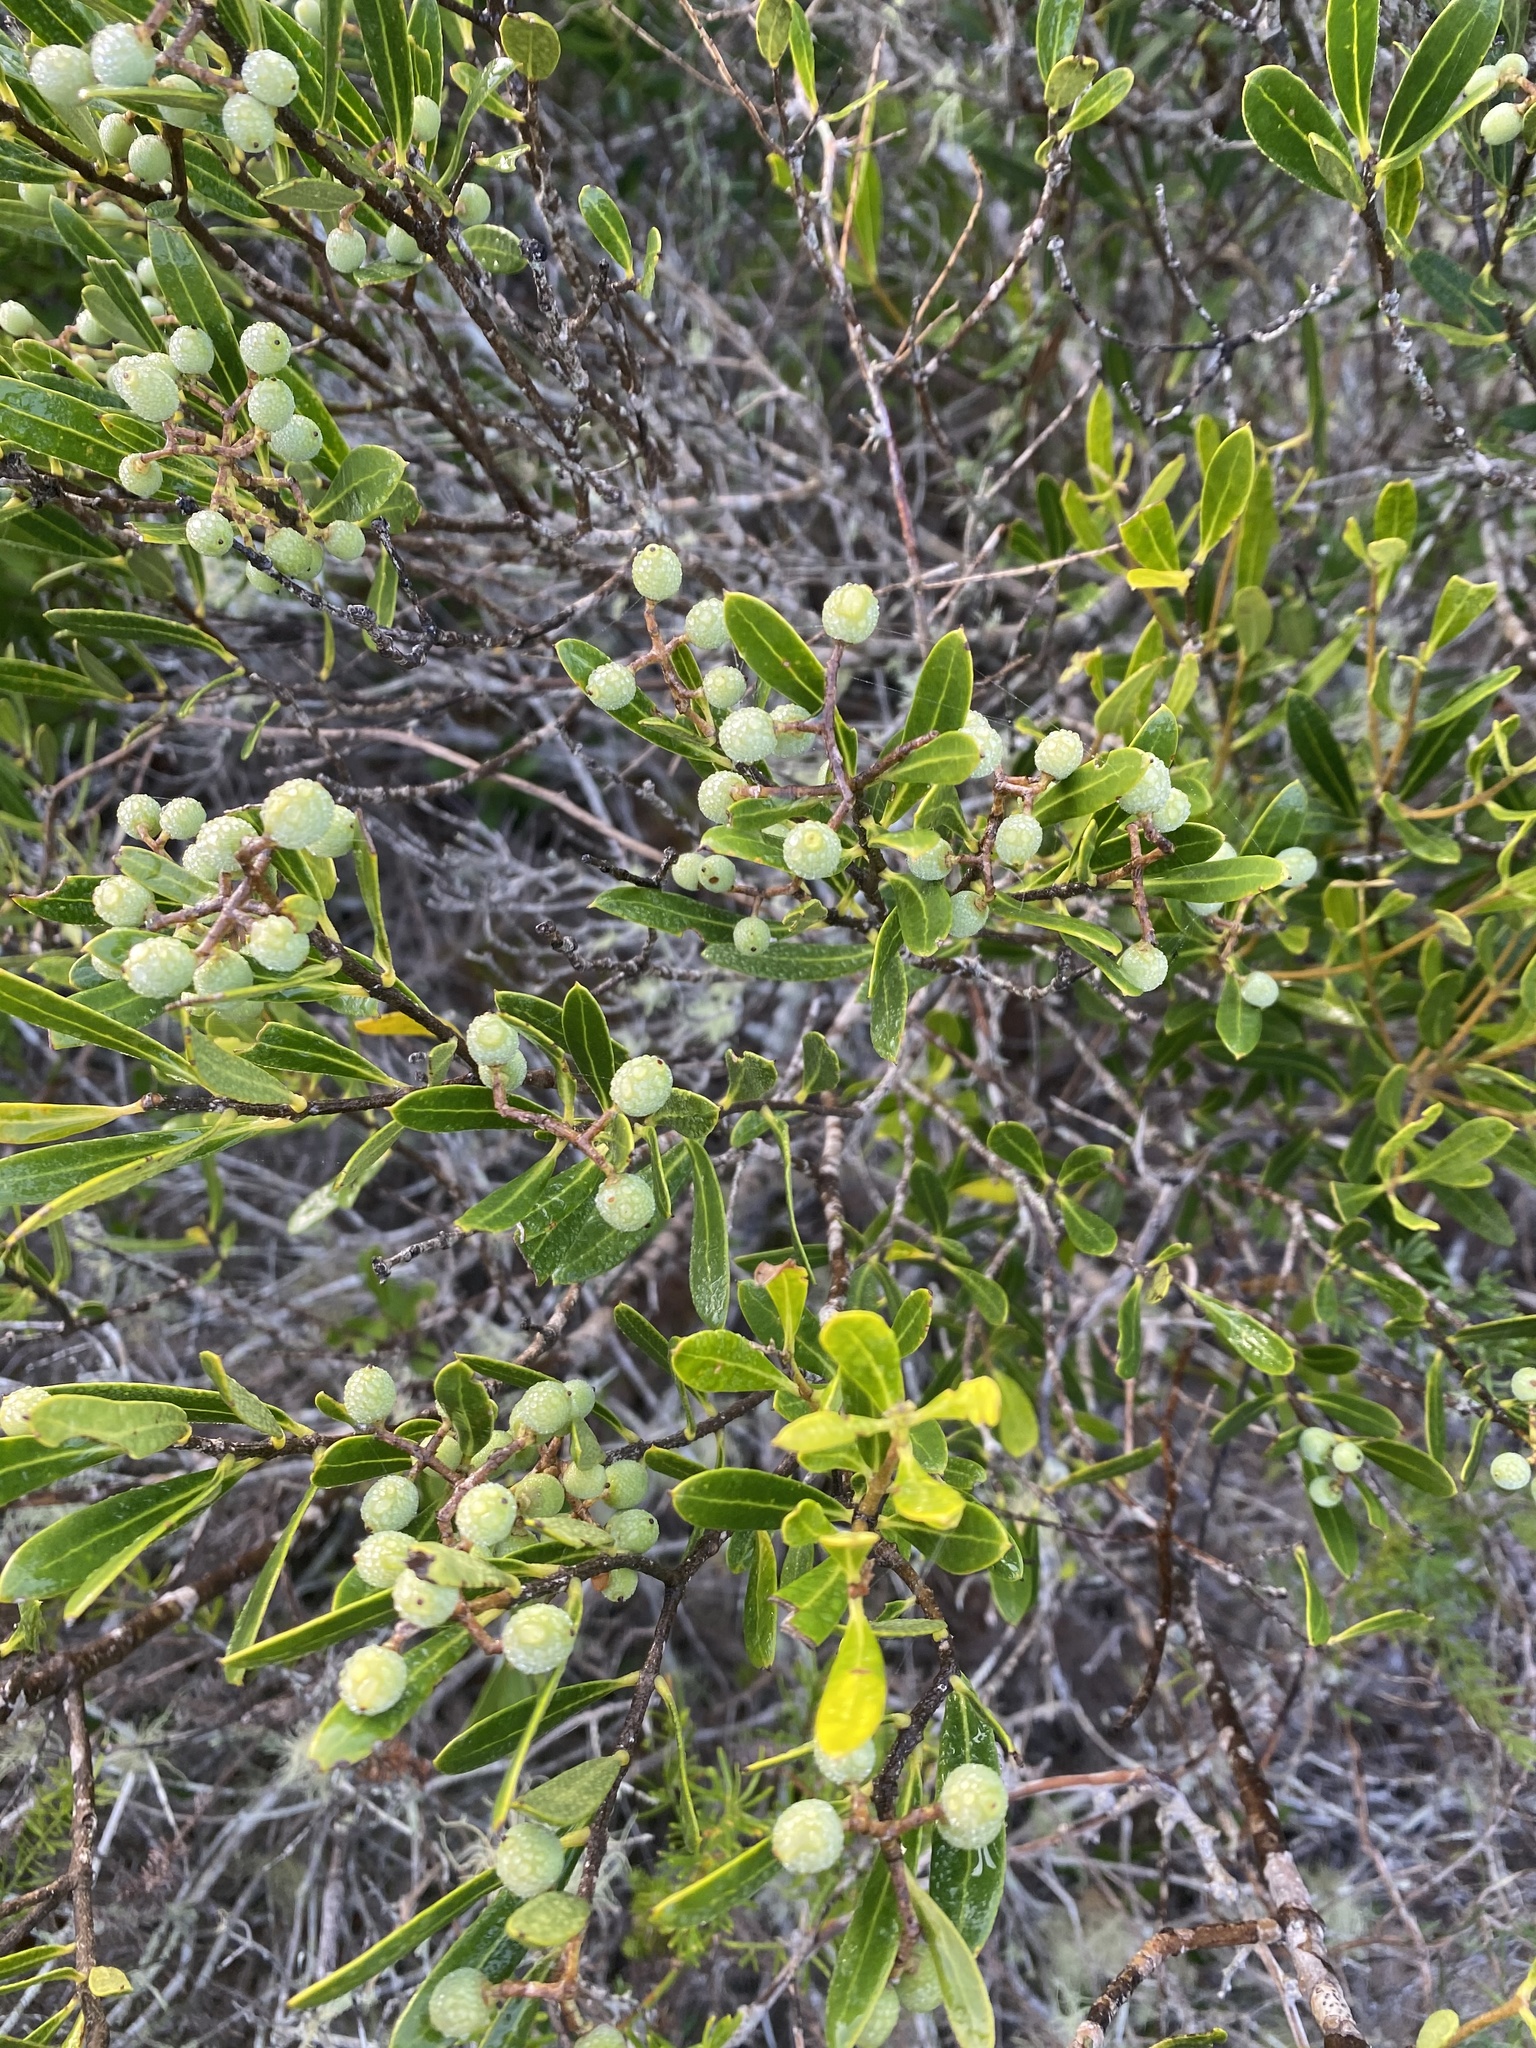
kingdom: Plantae
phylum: Tracheophyta
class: Magnoliopsida
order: Lamiales
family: Oleaceae
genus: Olea
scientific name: Olea exasperata
